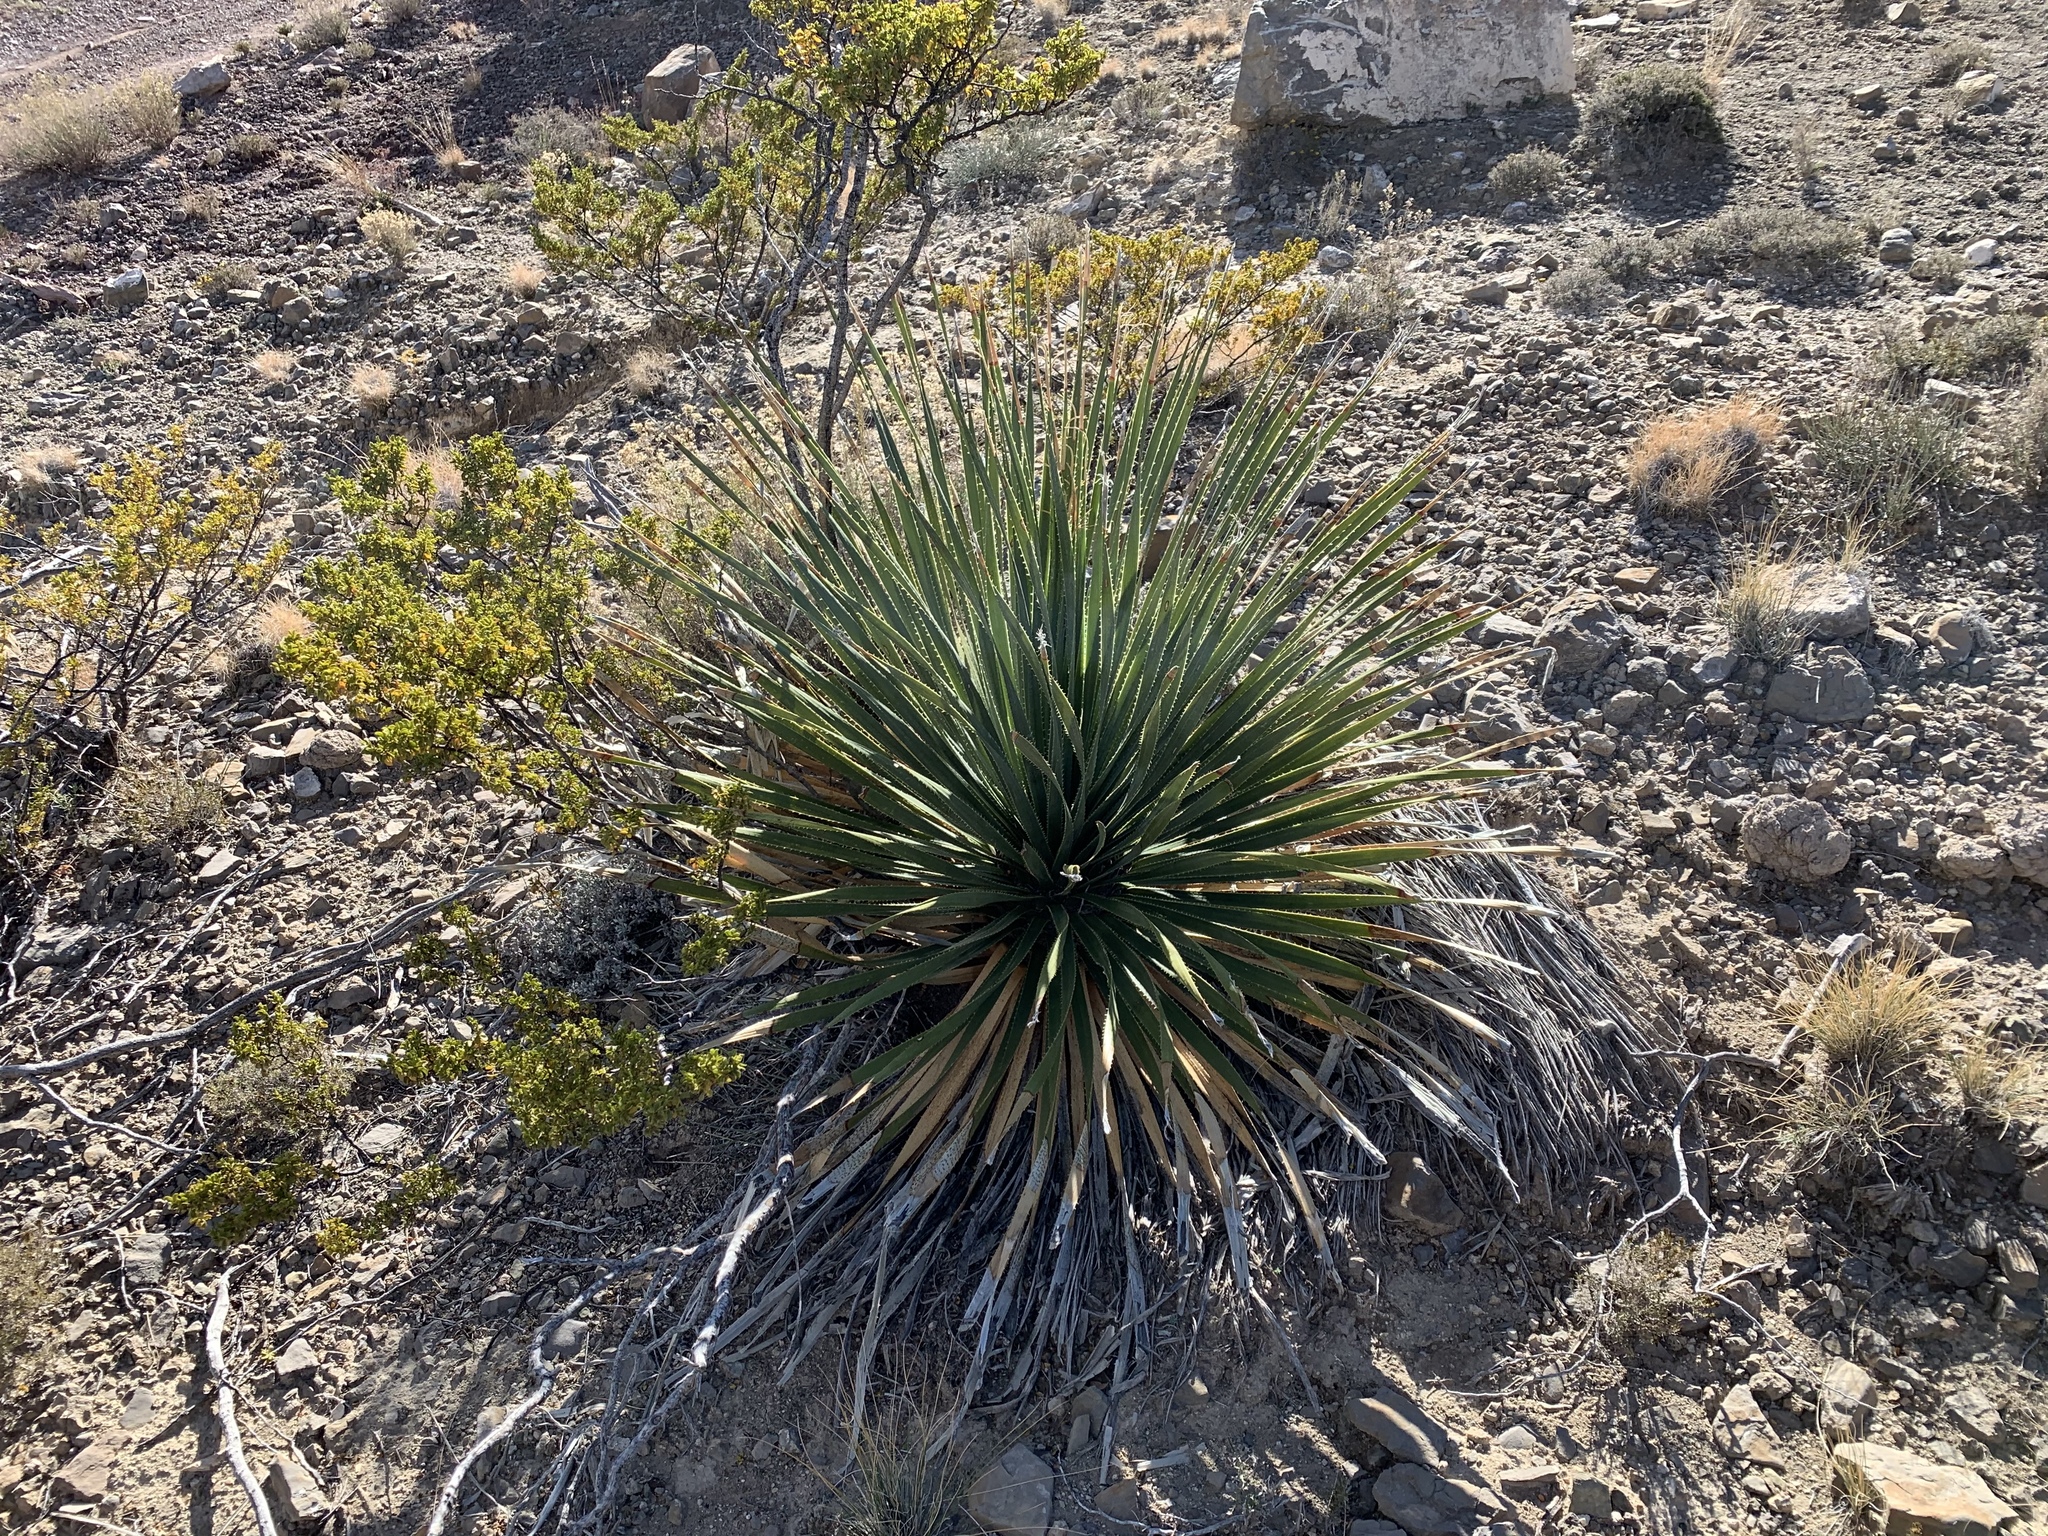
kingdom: Plantae
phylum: Tracheophyta
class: Liliopsida
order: Asparagales
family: Asparagaceae
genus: Dasylirion
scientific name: Dasylirion wheeleri
